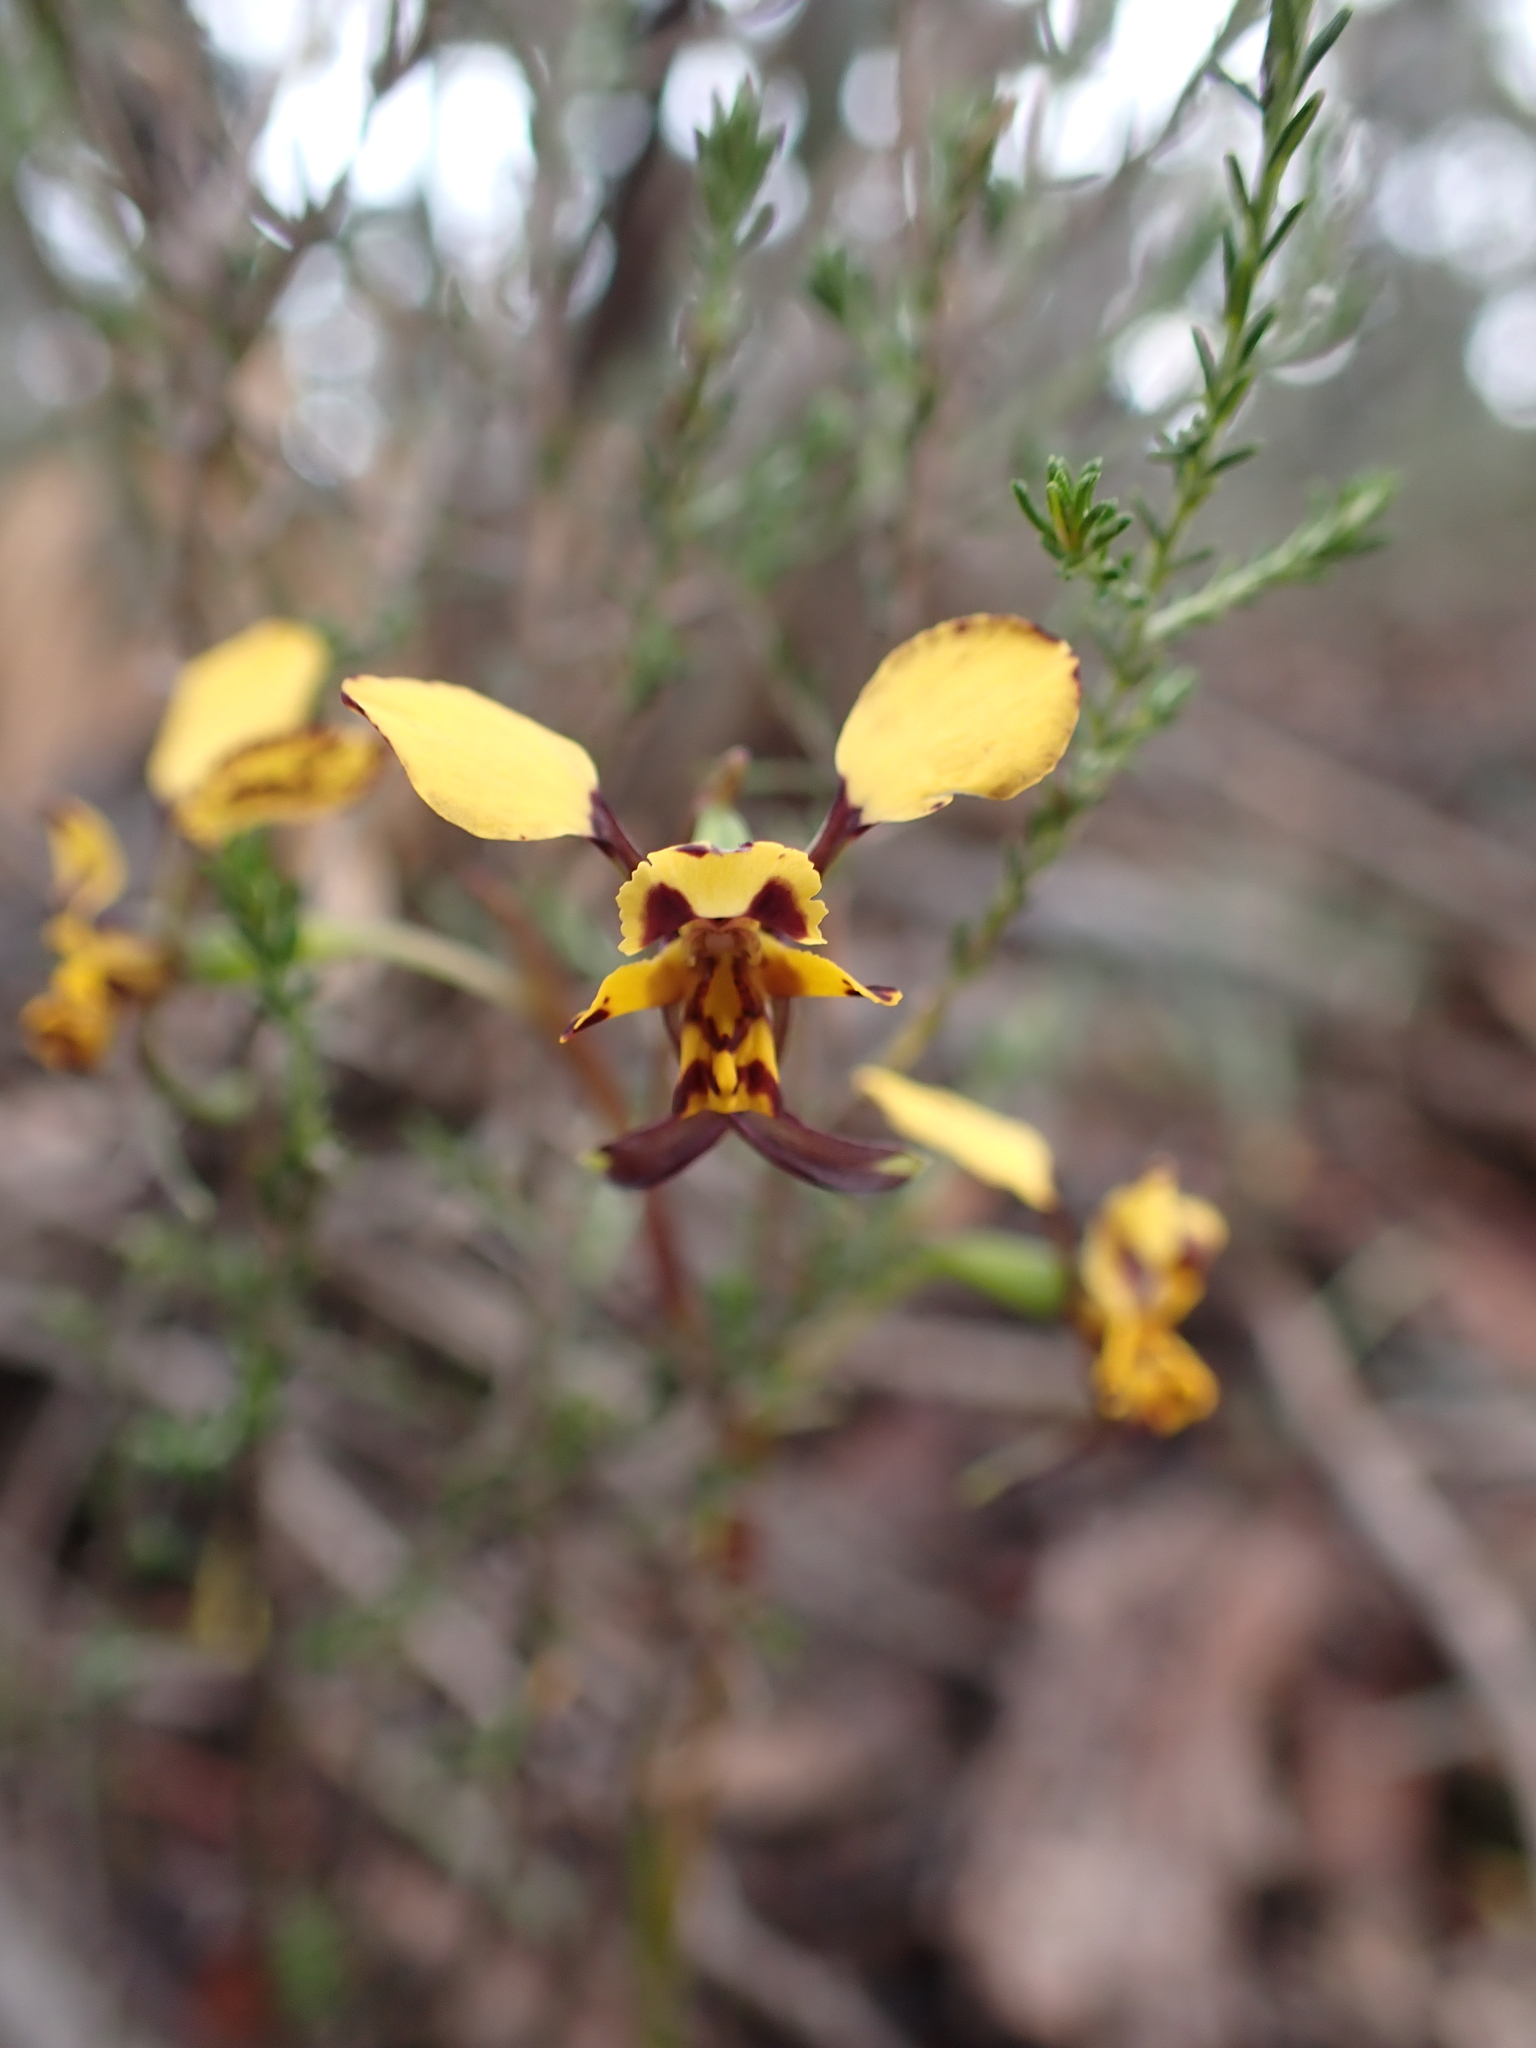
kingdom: Plantae
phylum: Tracheophyta
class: Liliopsida
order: Asparagales
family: Orchidaceae
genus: Diuris
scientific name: Diuris pardina
